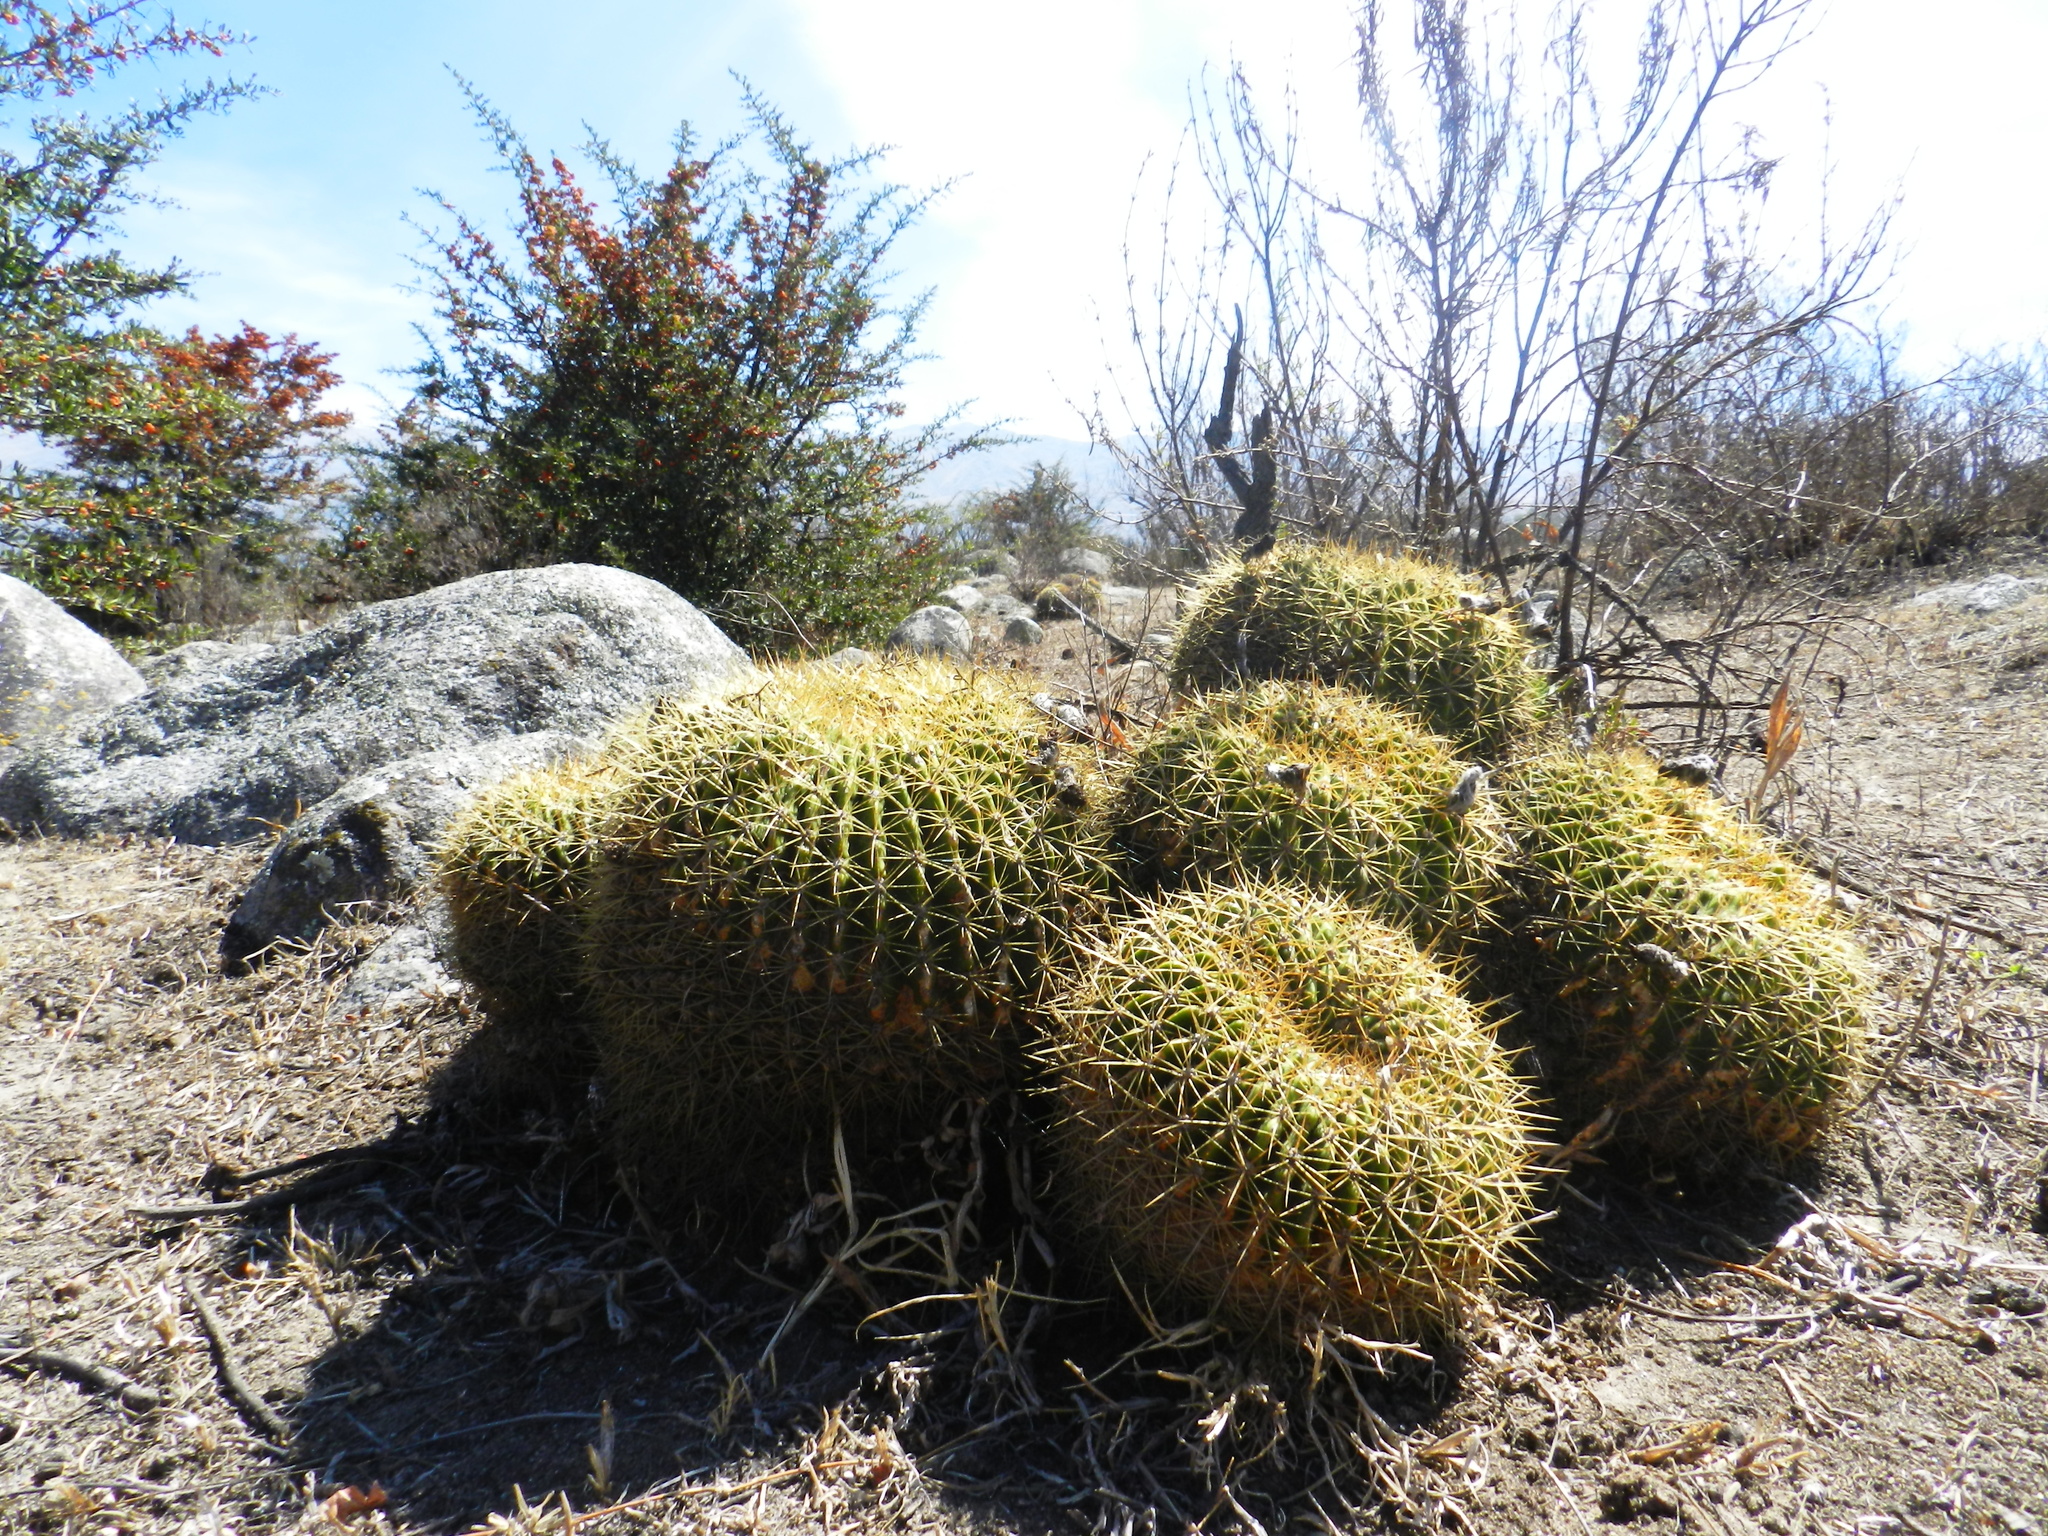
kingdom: Plantae
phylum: Tracheophyta
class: Magnoliopsida
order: Caryophyllales
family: Cactaceae
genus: Soehrensia
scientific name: Soehrensia bruchii
